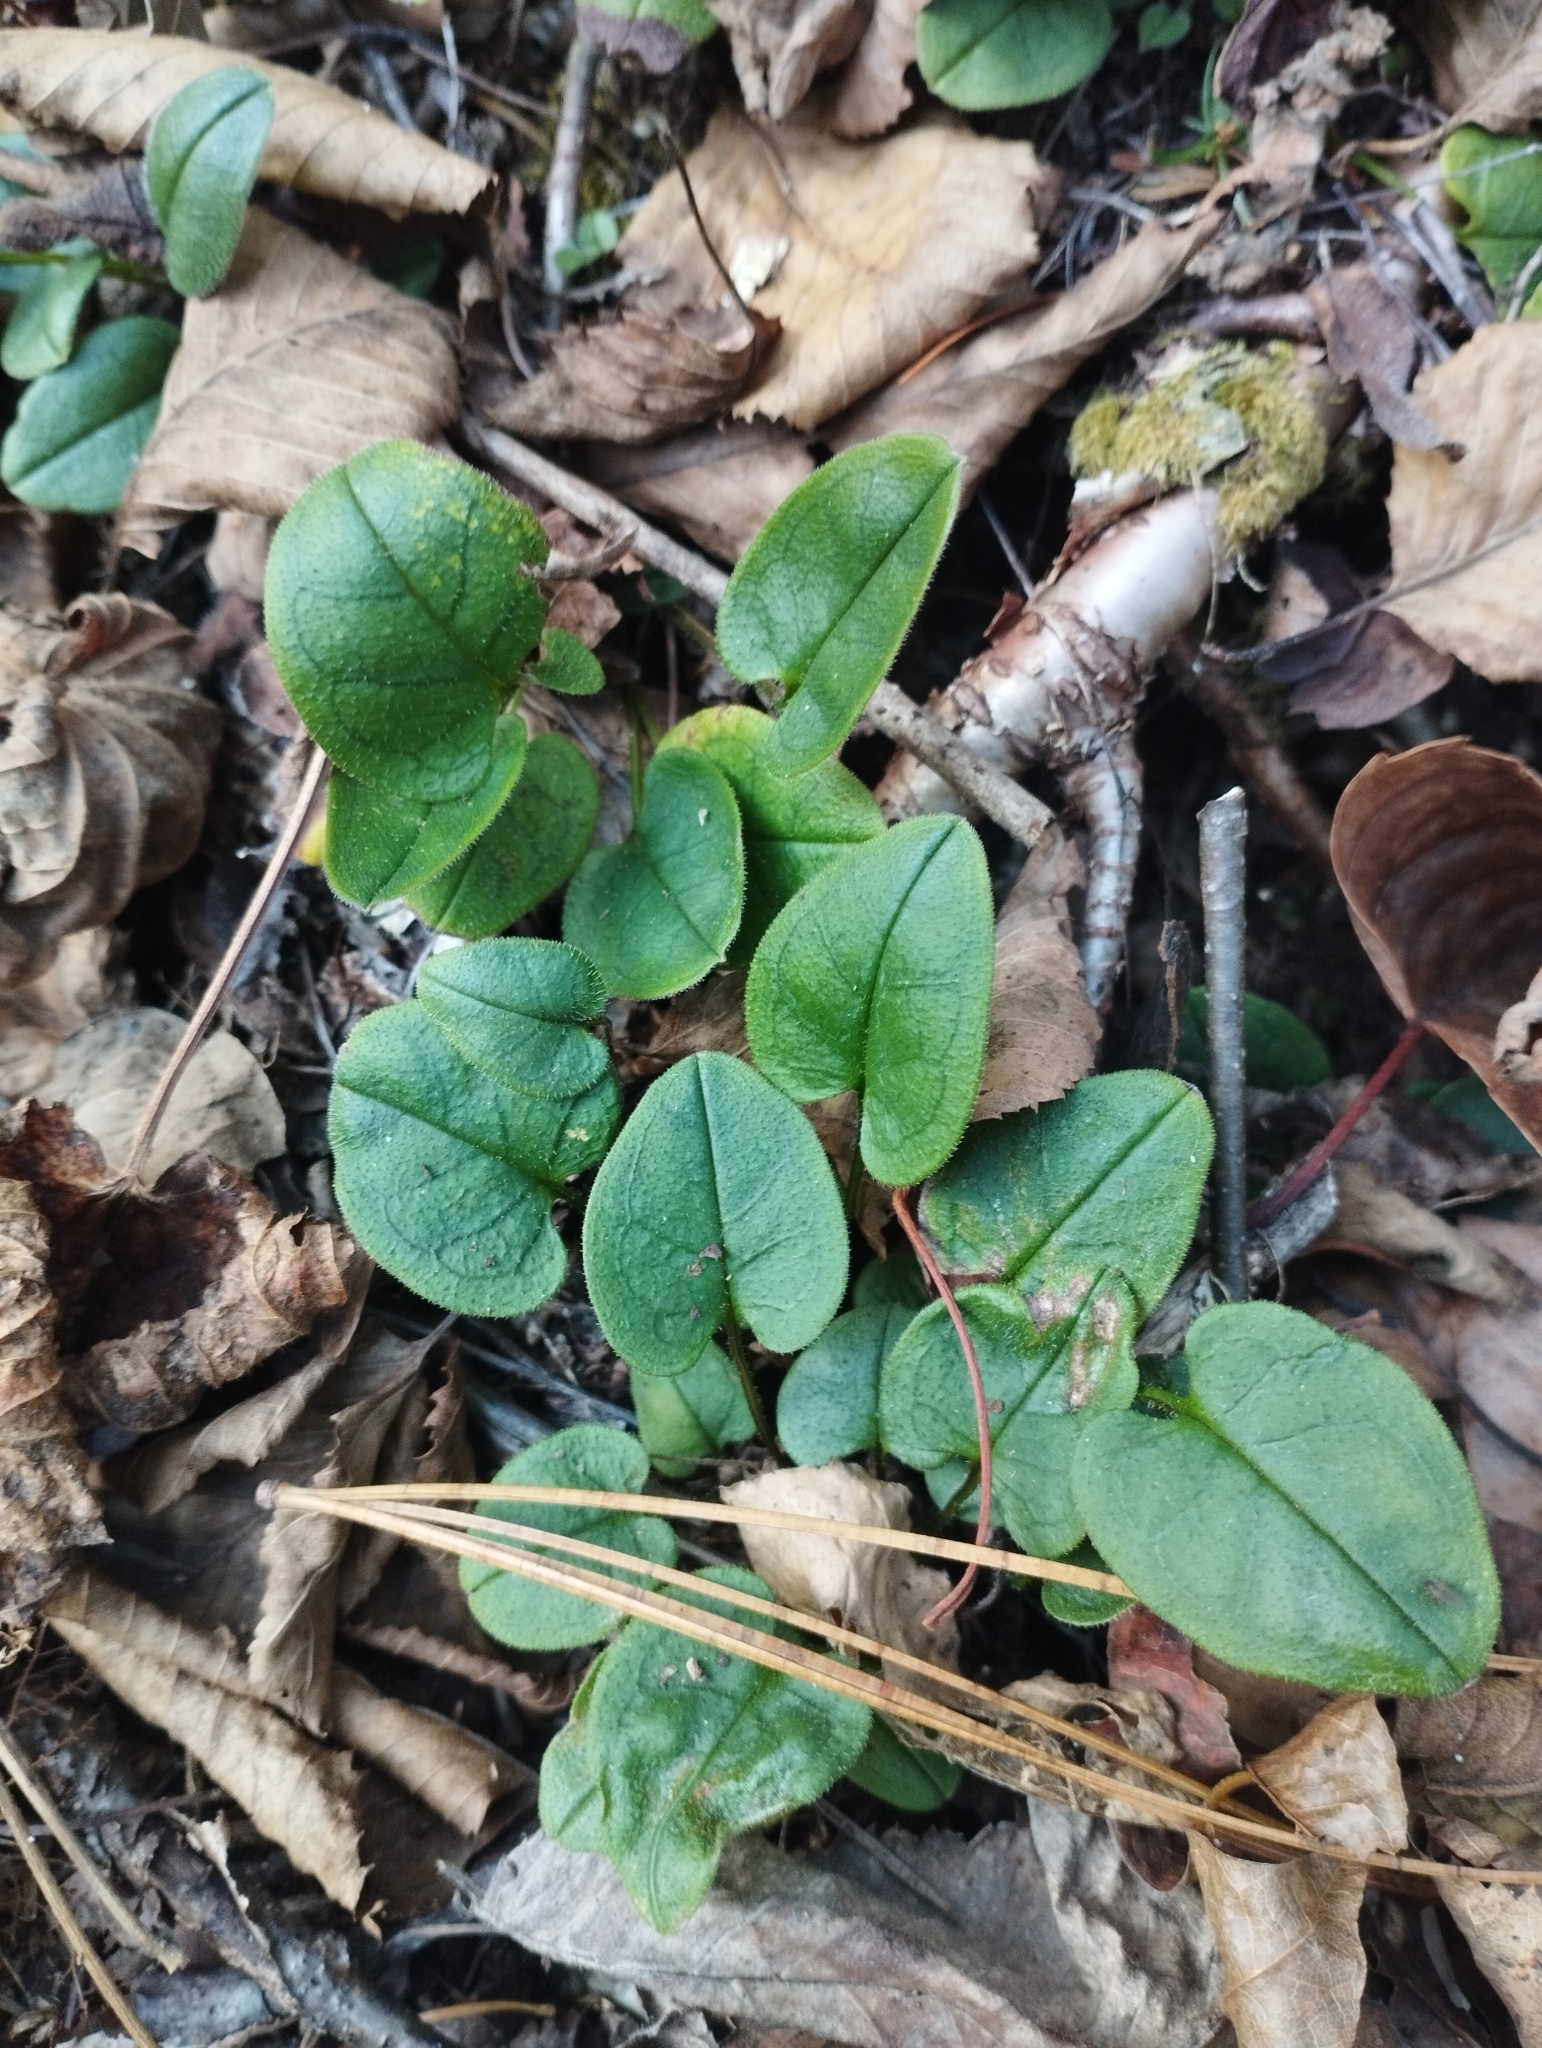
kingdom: Plantae
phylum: Tracheophyta
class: Magnoliopsida
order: Boraginales
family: Boraginaceae
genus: Trigonotis
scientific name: Trigonotis radicans
